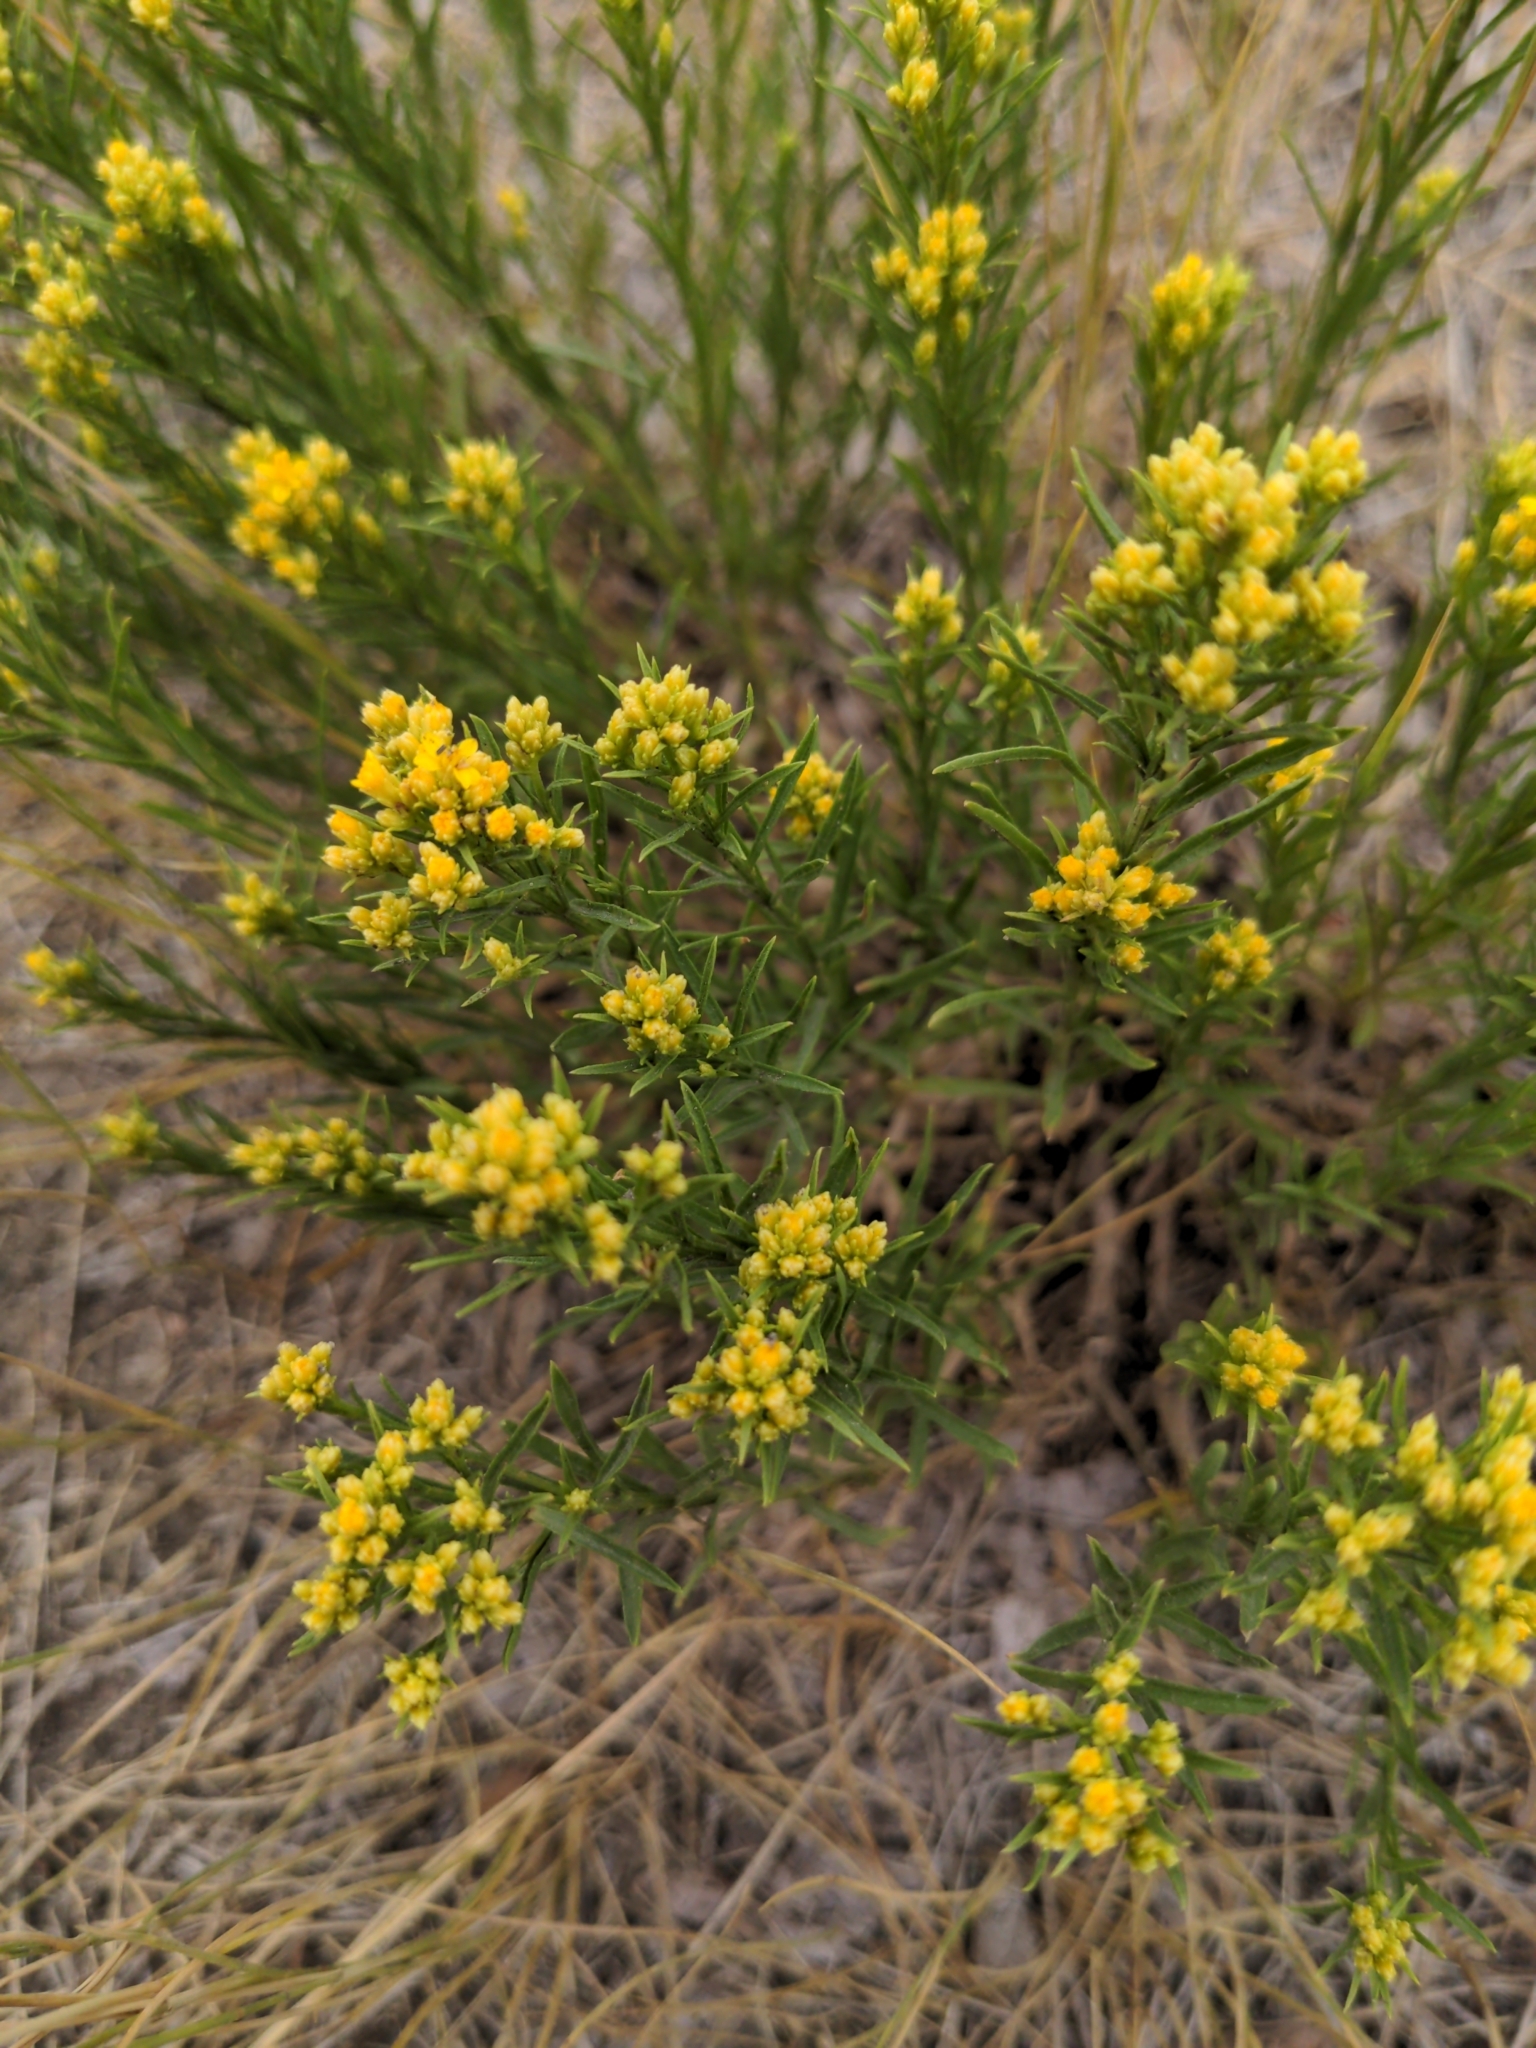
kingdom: Plantae
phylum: Tracheophyta
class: Magnoliopsida
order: Asterales
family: Asteraceae
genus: Gutierrezia
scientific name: Gutierrezia sarothrae
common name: Broom snakeweed
